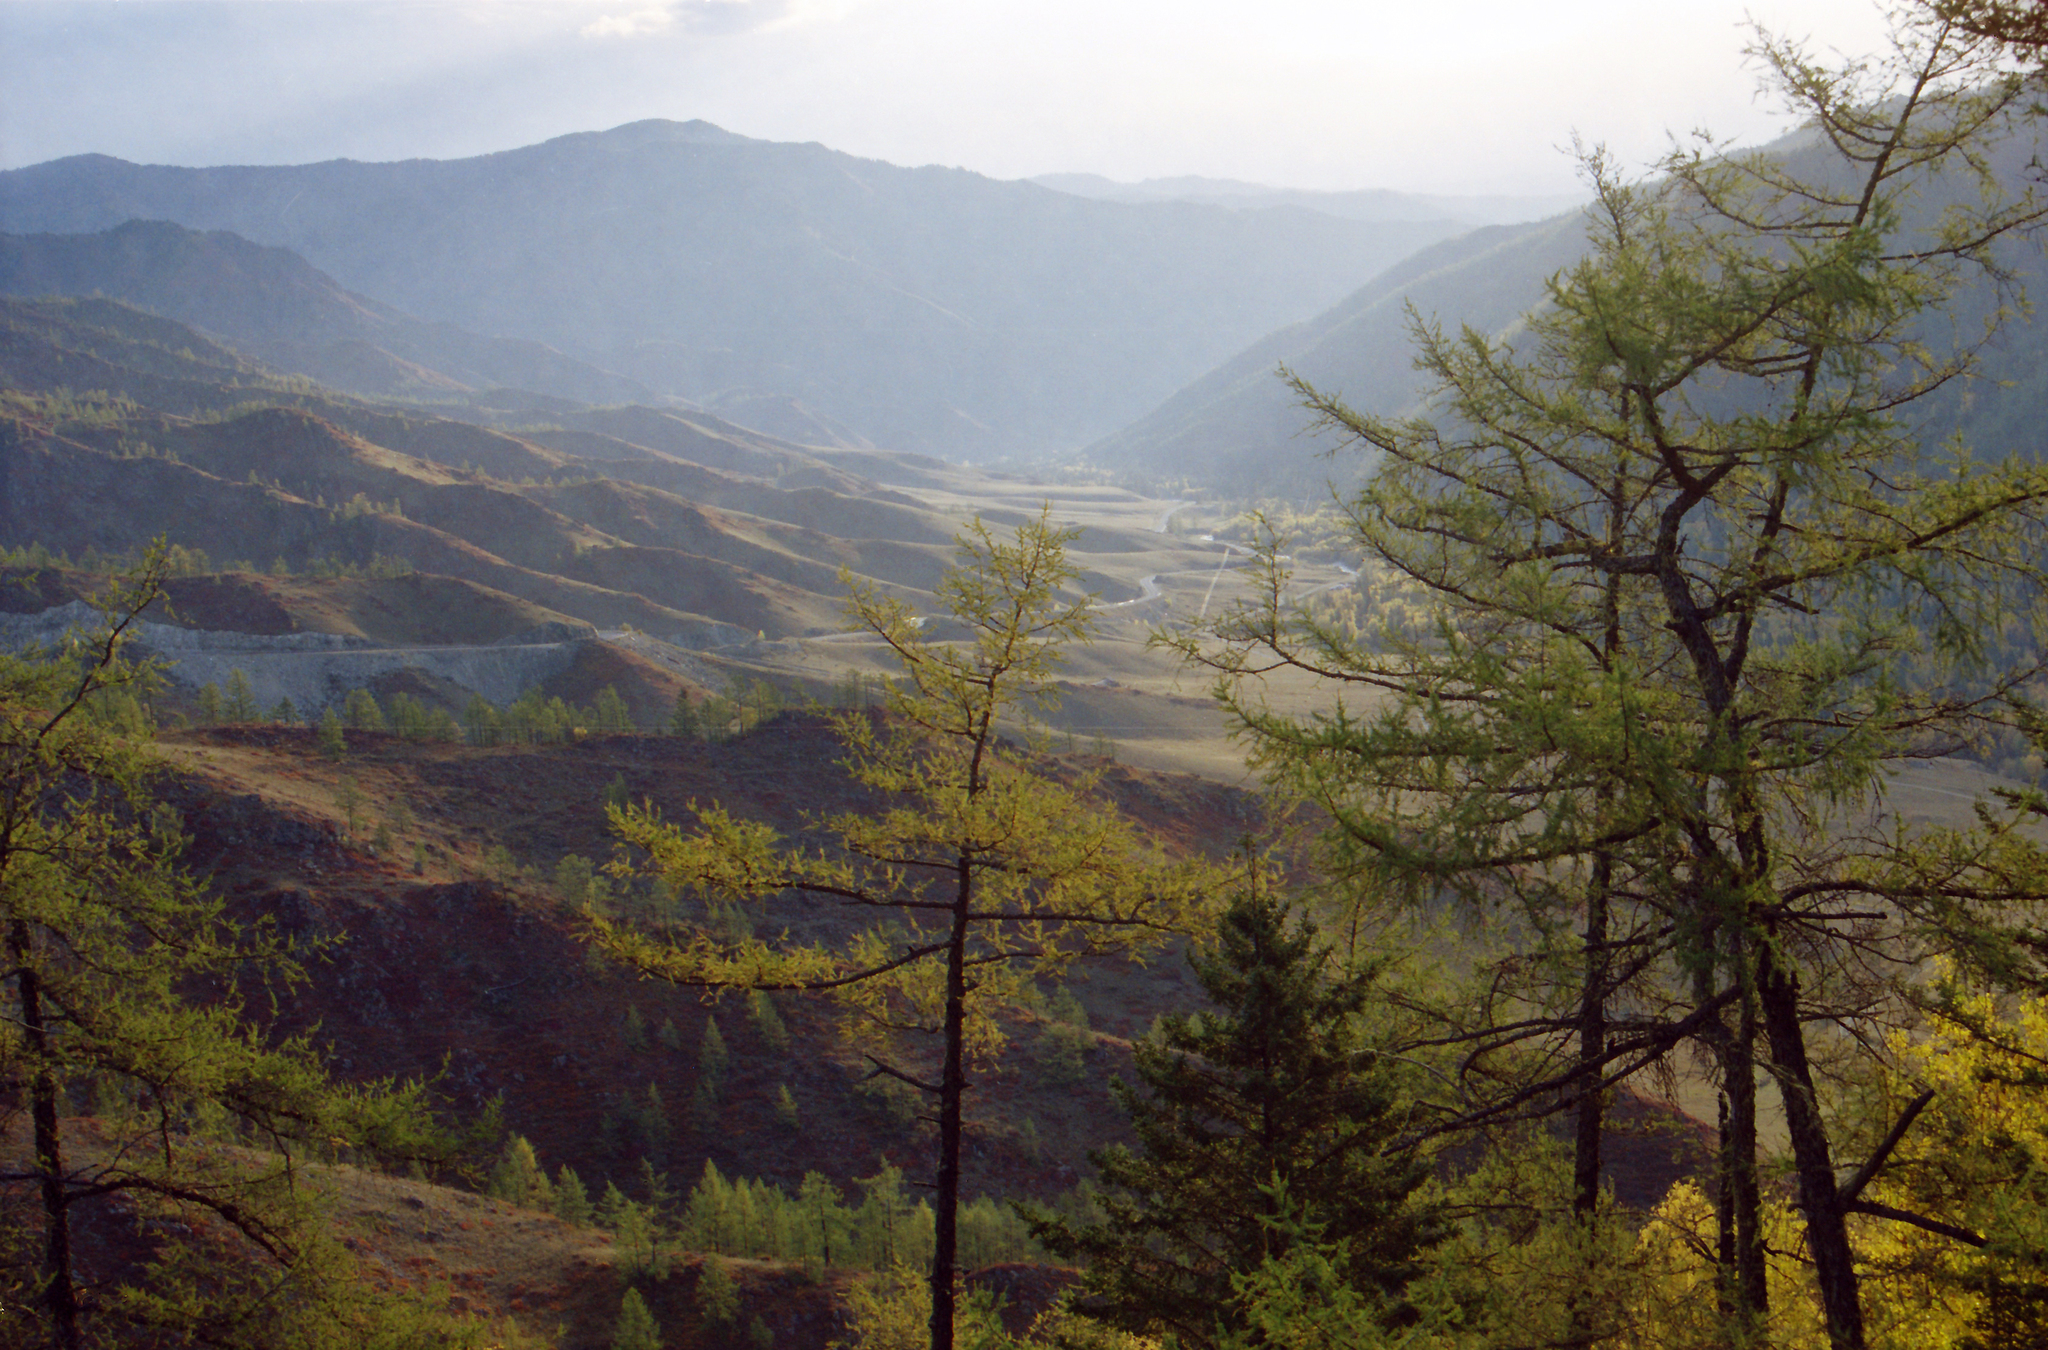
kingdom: Plantae
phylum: Tracheophyta
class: Pinopsida
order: Pinales
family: Pinaceae
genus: Larix
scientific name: Larix sibirica
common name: Siberian larch
